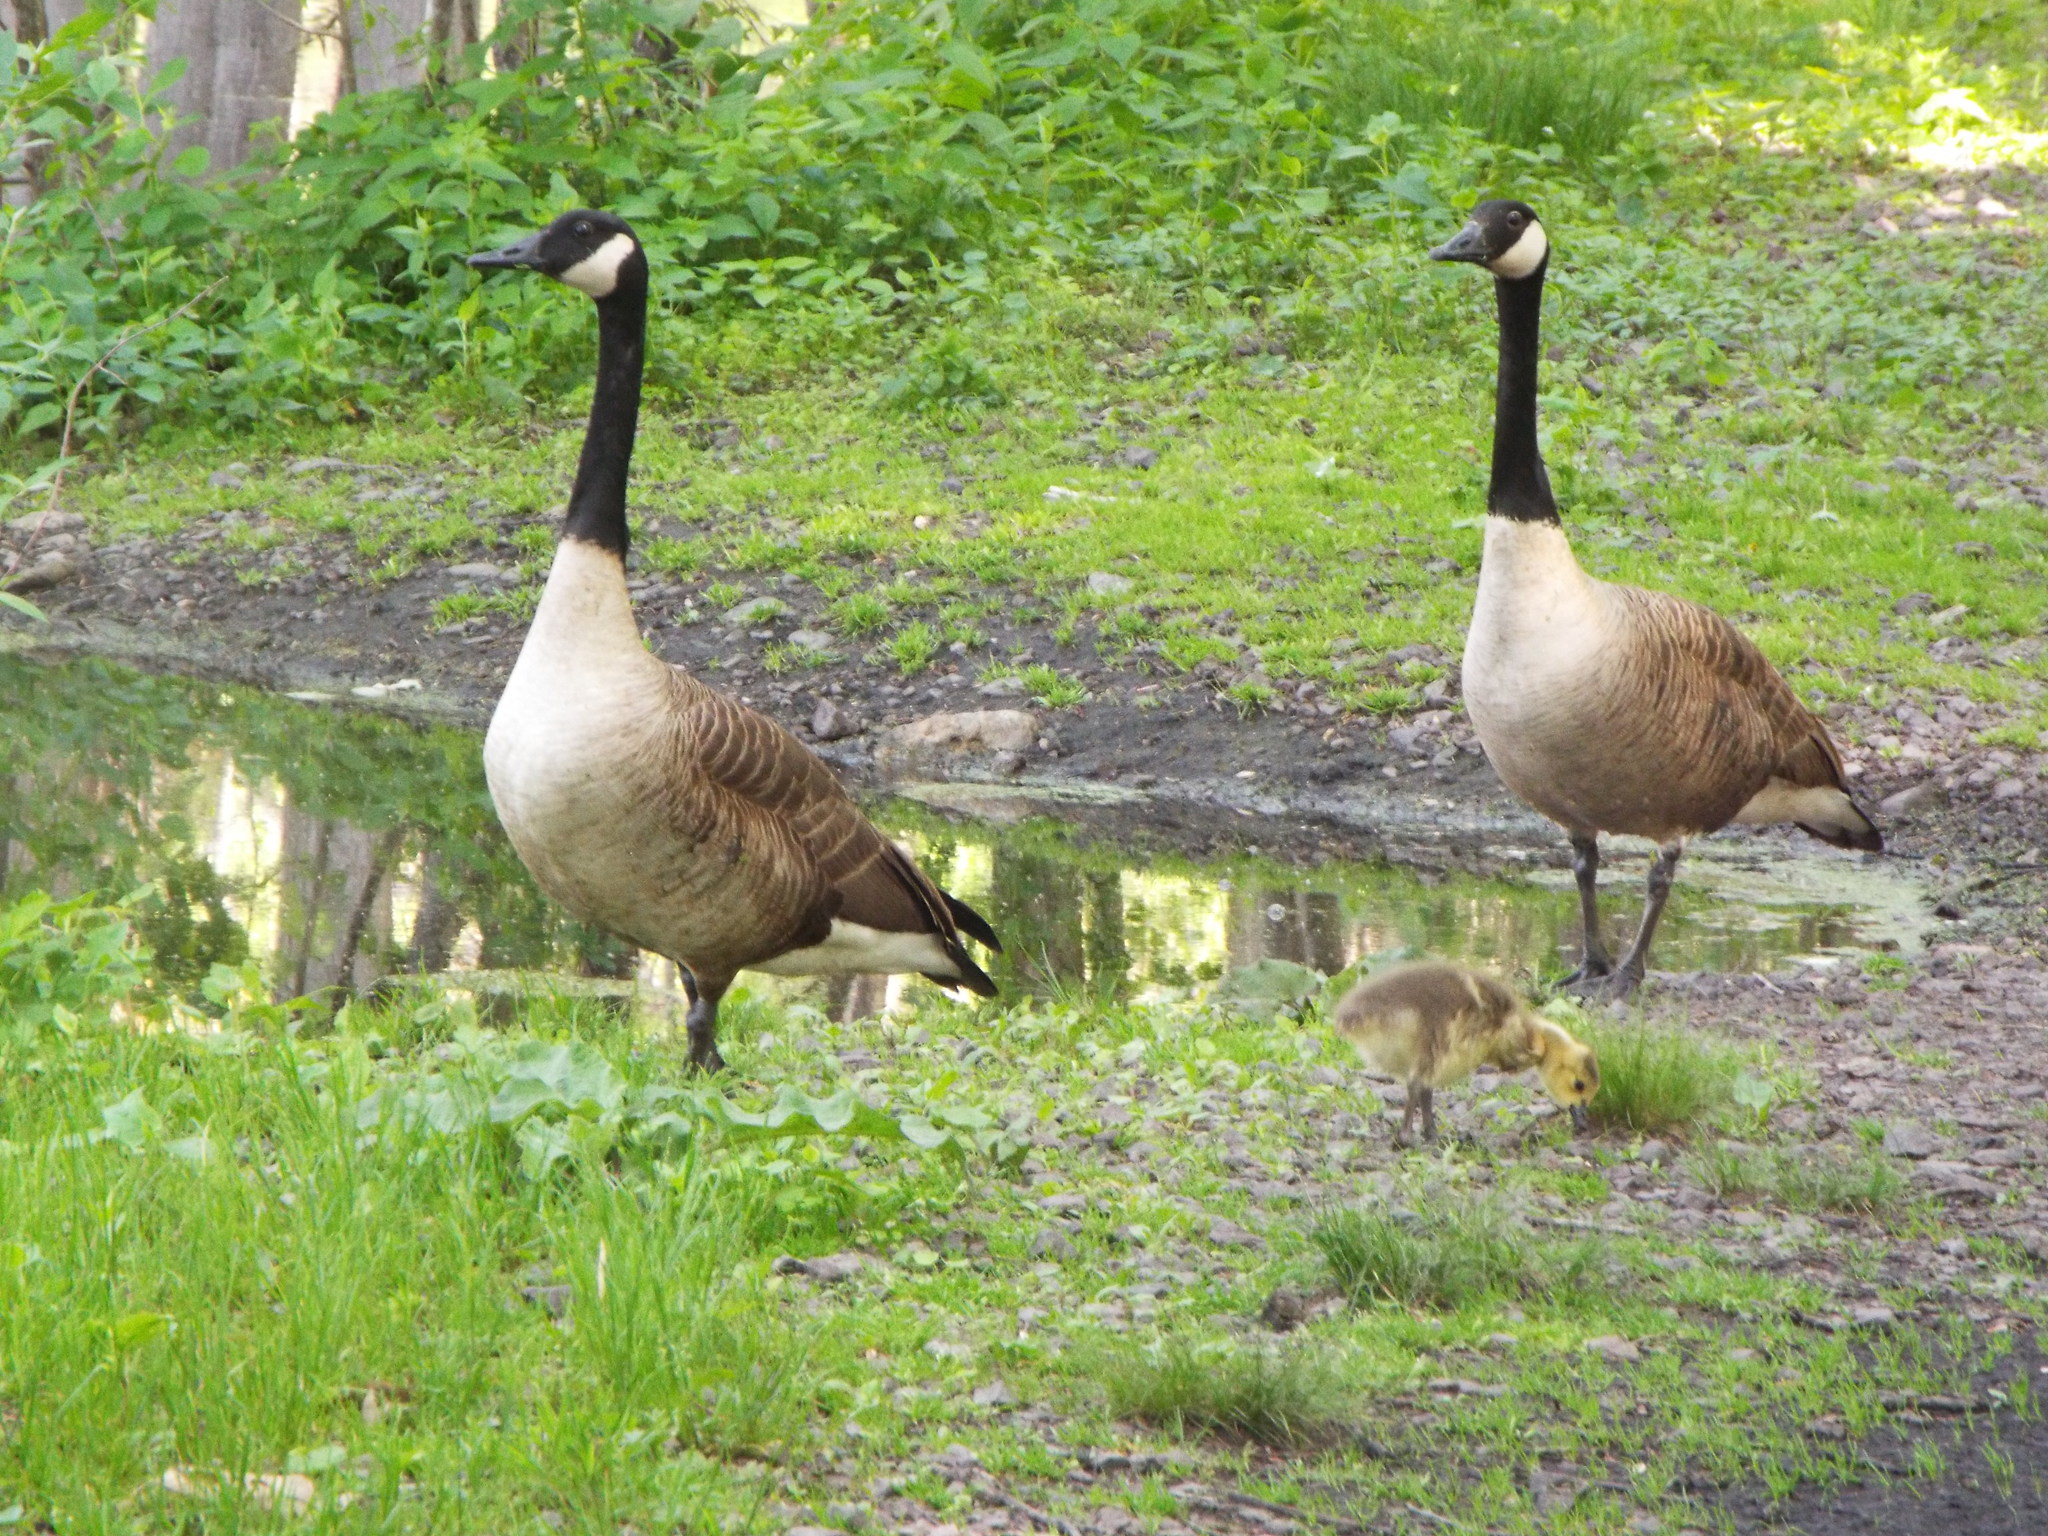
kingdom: Animalia
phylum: Chordata
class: Aves
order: Anseriformes
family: Anatidae
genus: Branta
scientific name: Branta canadensis
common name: Canada goose
